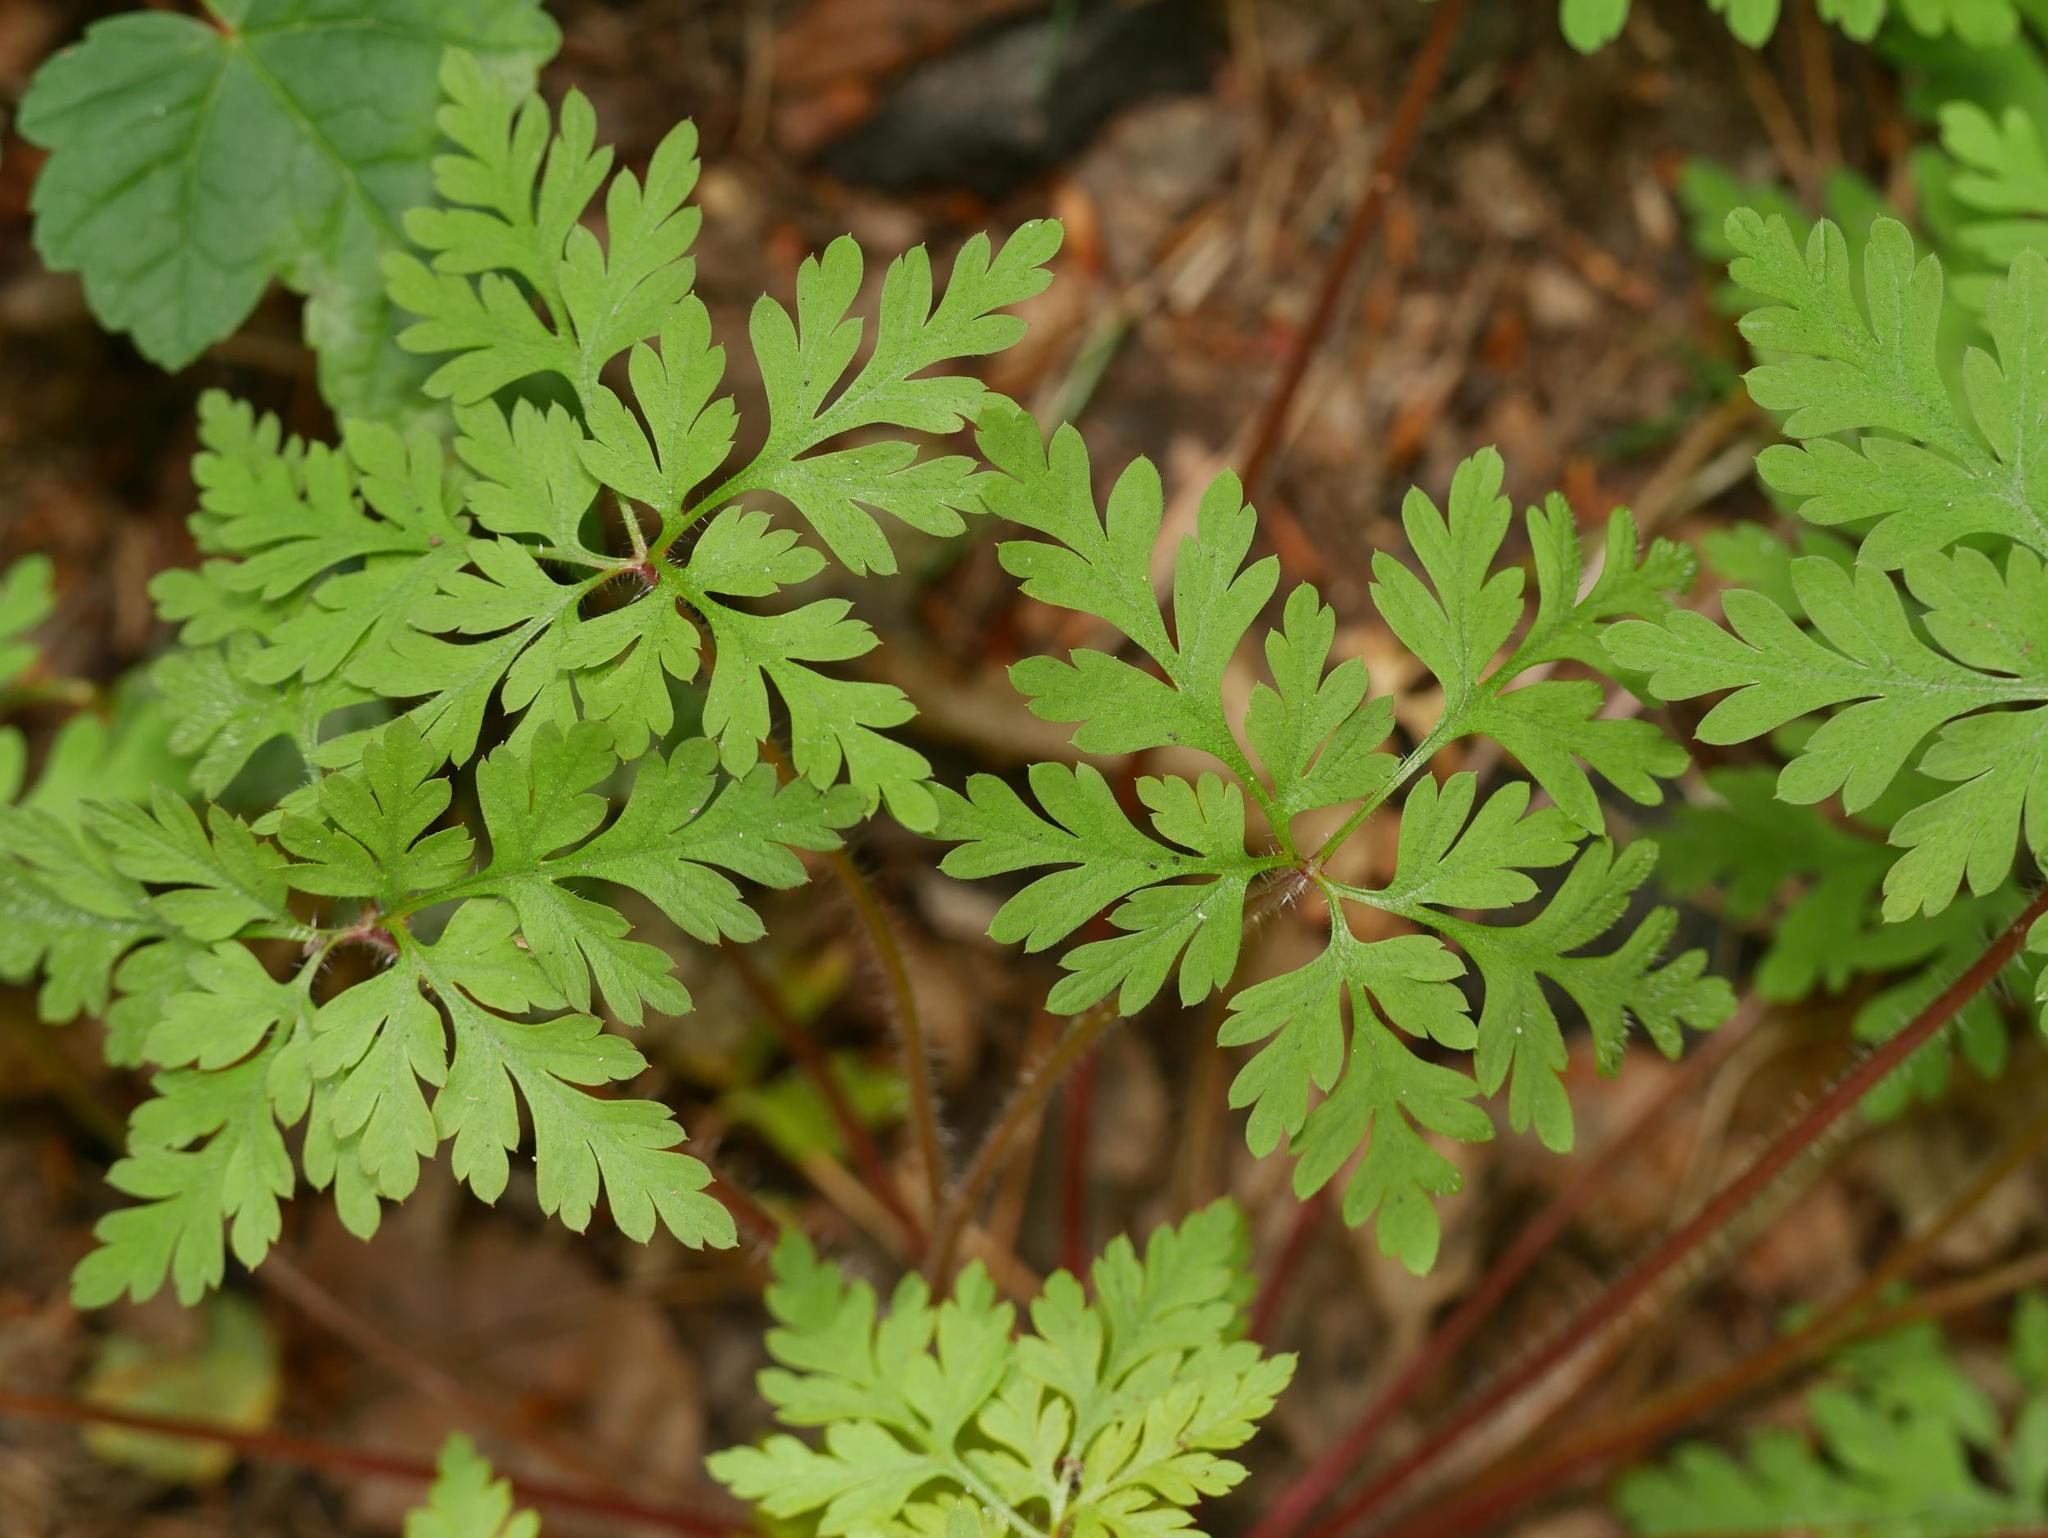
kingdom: Plantae
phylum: Tracheophyta
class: Magnoliopsida
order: Geraniales
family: Geraniaceae
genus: Geranium
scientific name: Geranium robertianum
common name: Herb-robert
